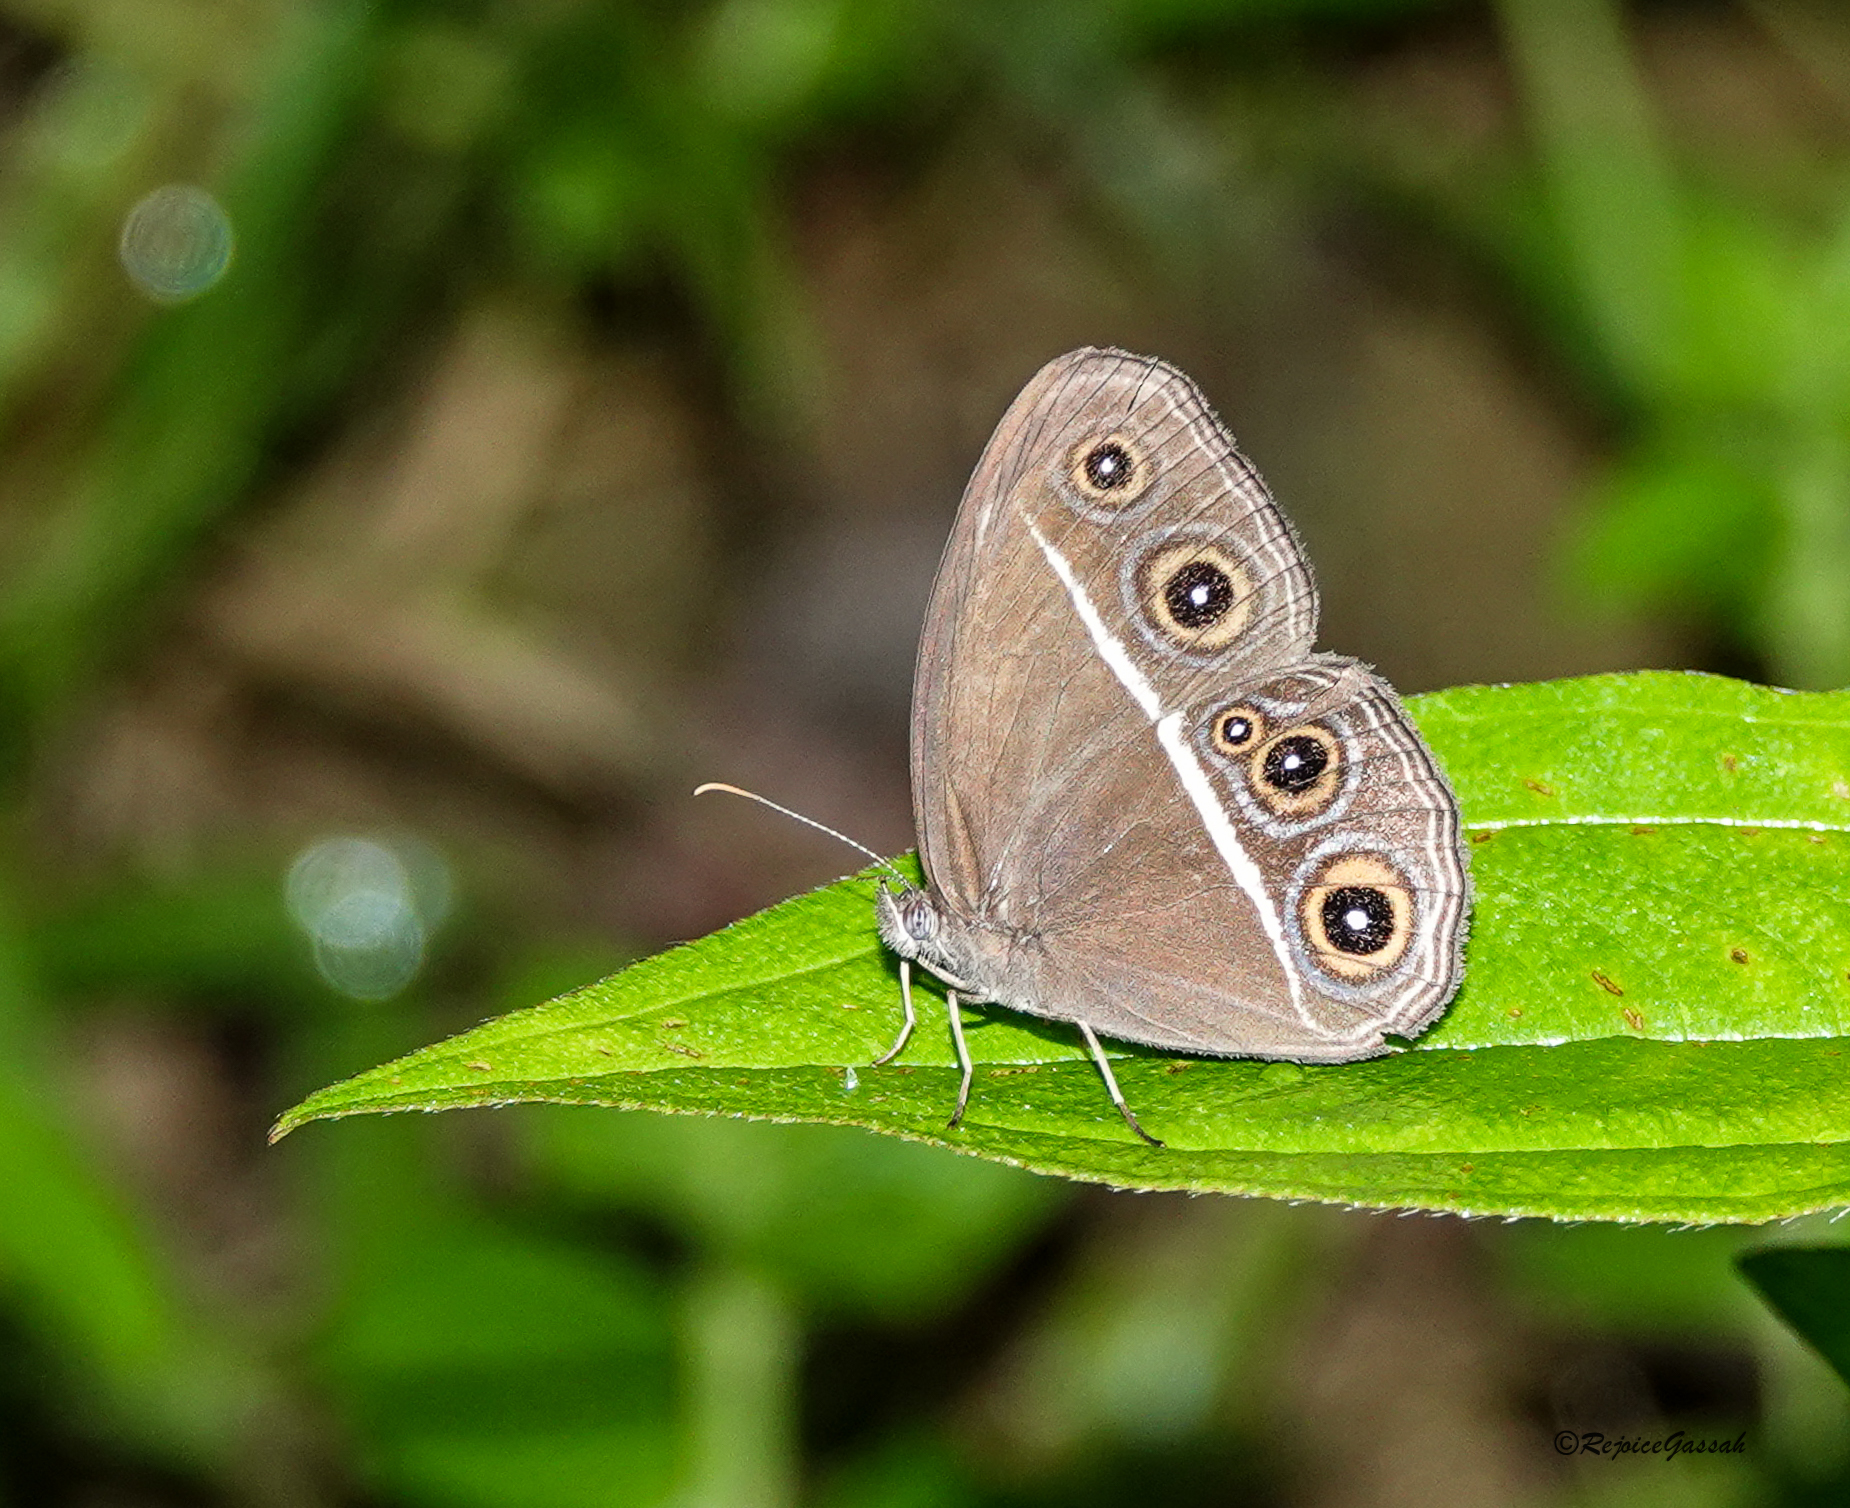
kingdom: Animalia
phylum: Arthropoda
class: Insecta
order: Lepidoptera
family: Nymphalidae
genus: Orsotriaena
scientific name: Orsotriaena medus
